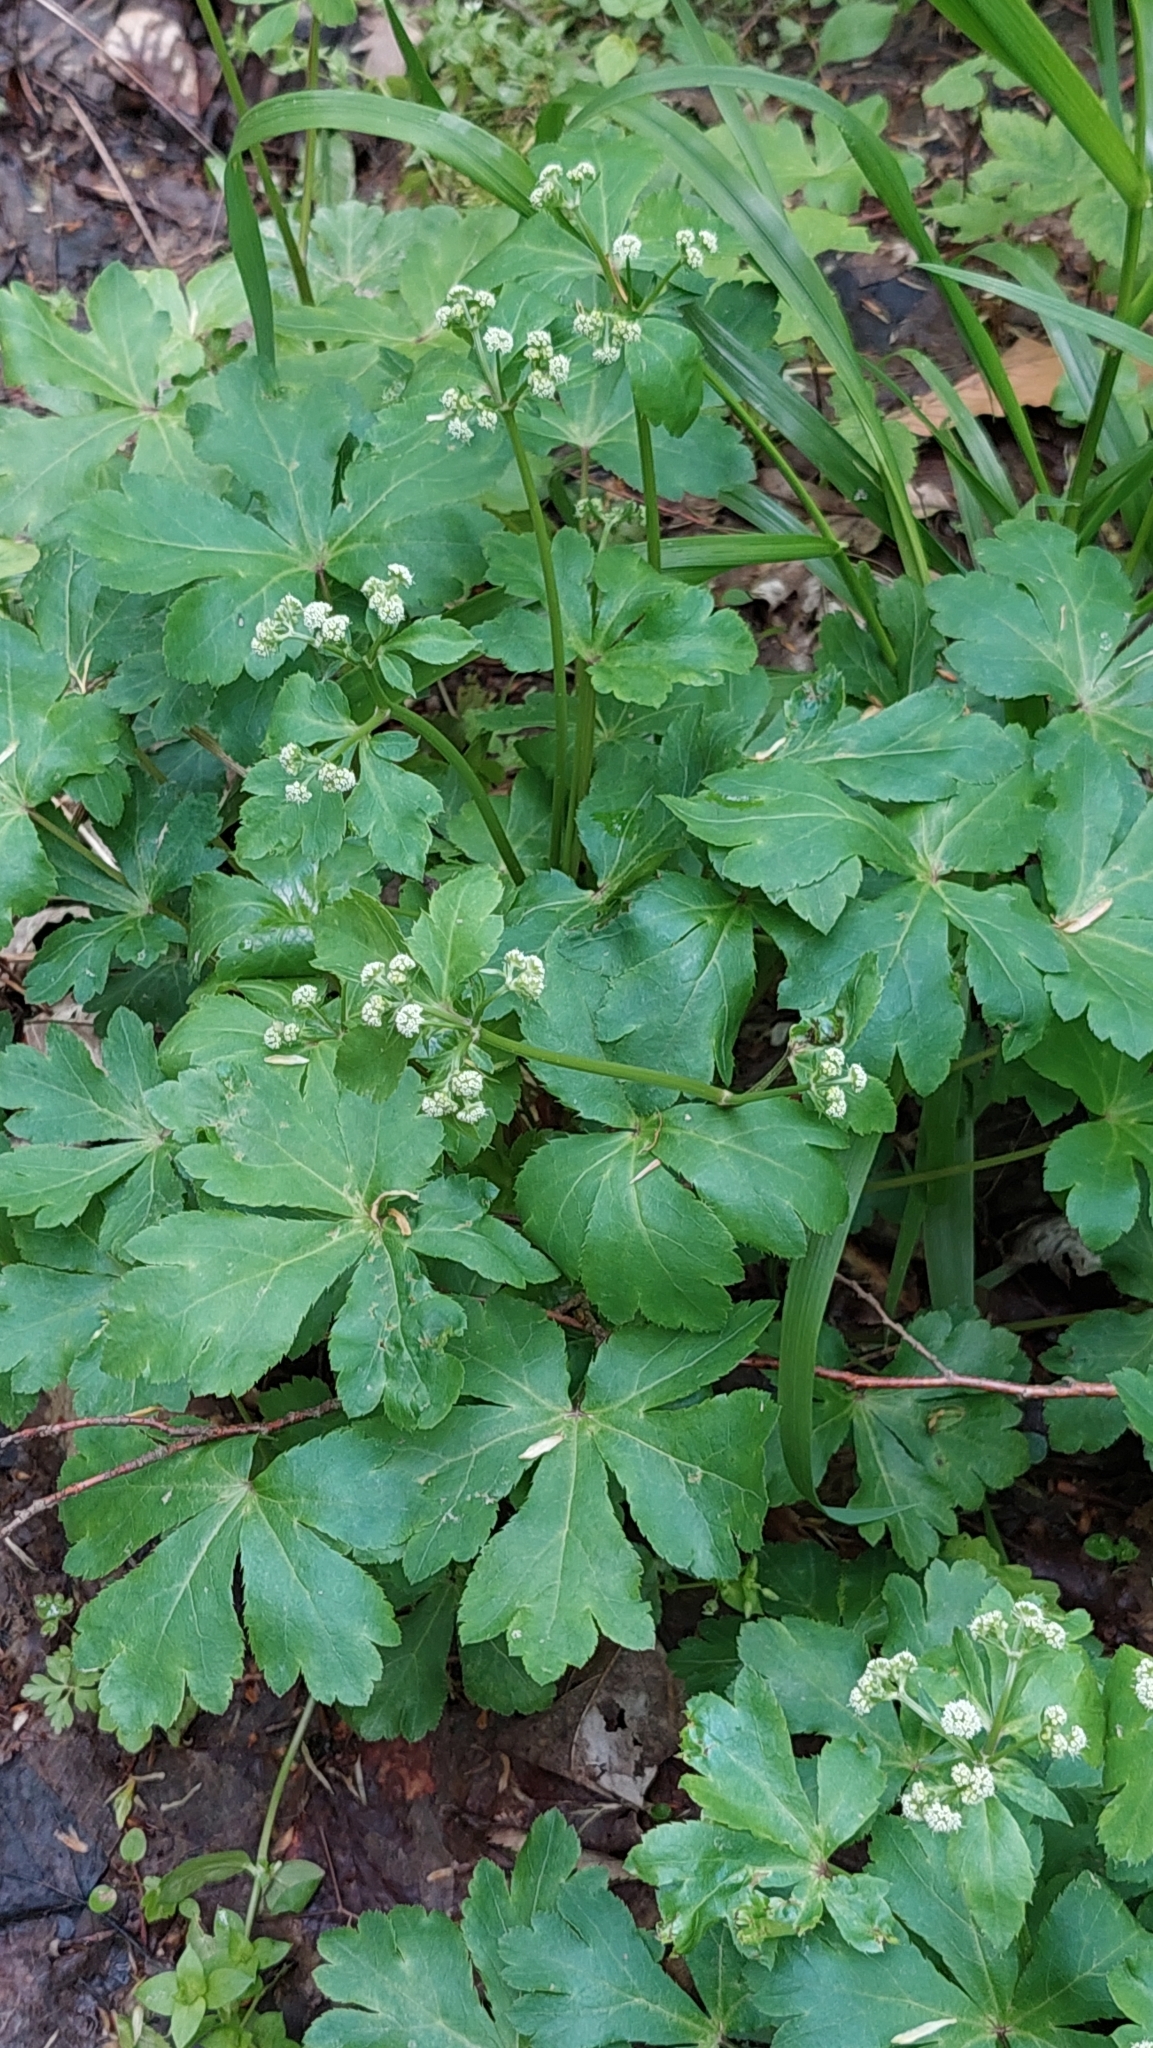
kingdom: Plantae
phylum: Tracheophyta
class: Magnoliopsida
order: Apiales
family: Apiaceae
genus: Sanicula
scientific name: Sanicula europaea
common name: Sanicle
